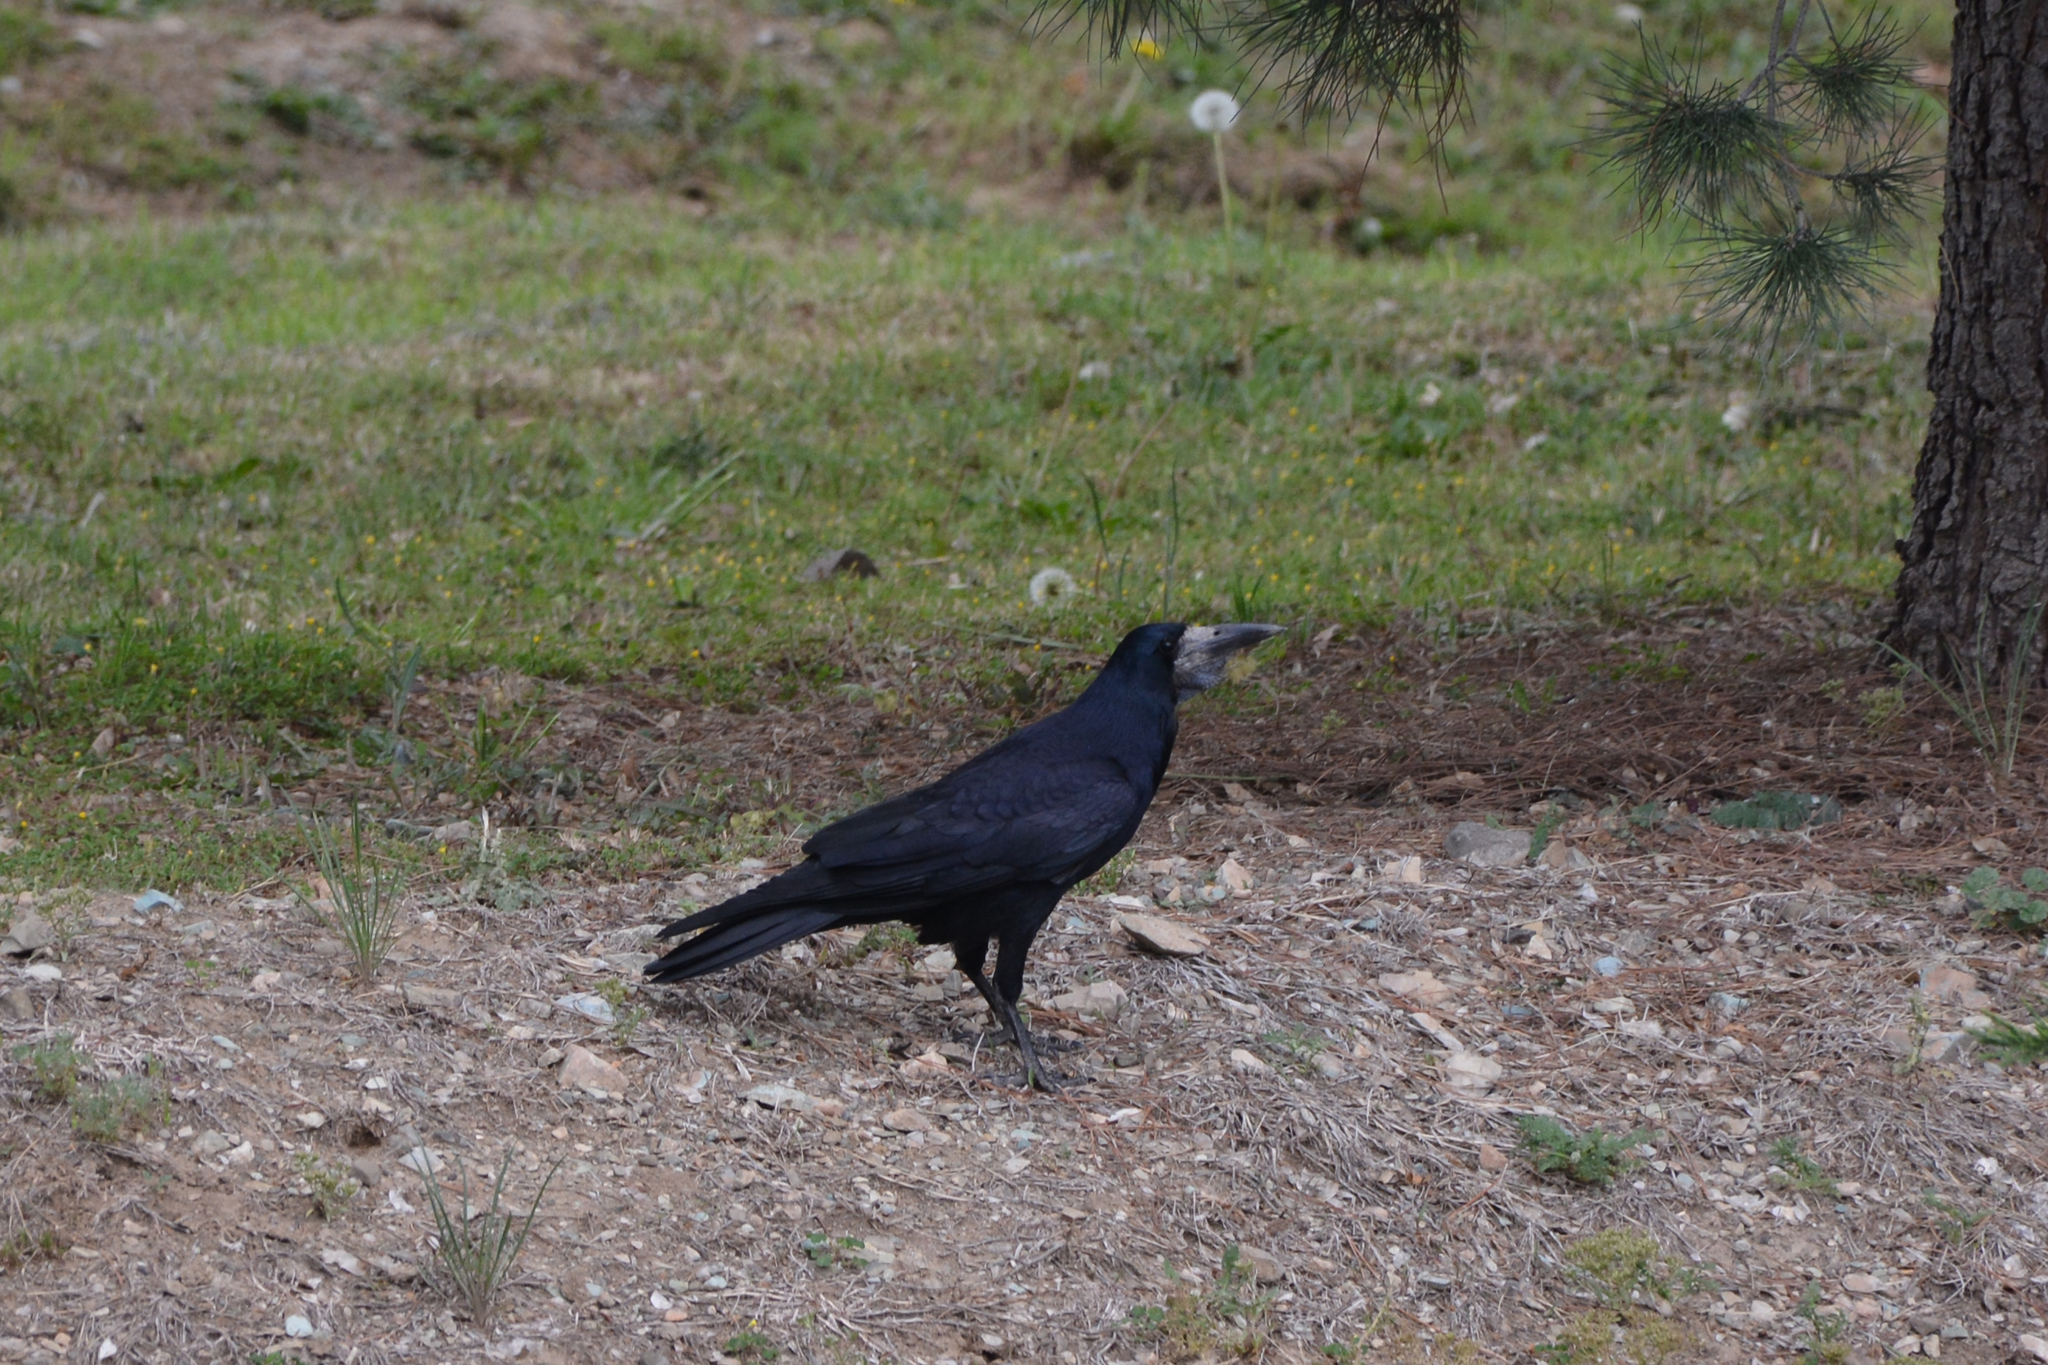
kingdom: Animalia
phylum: Chordata
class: Aves
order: Passeriformes
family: Corvidae
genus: Corvus
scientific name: Corvus frugilegus
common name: Rook
